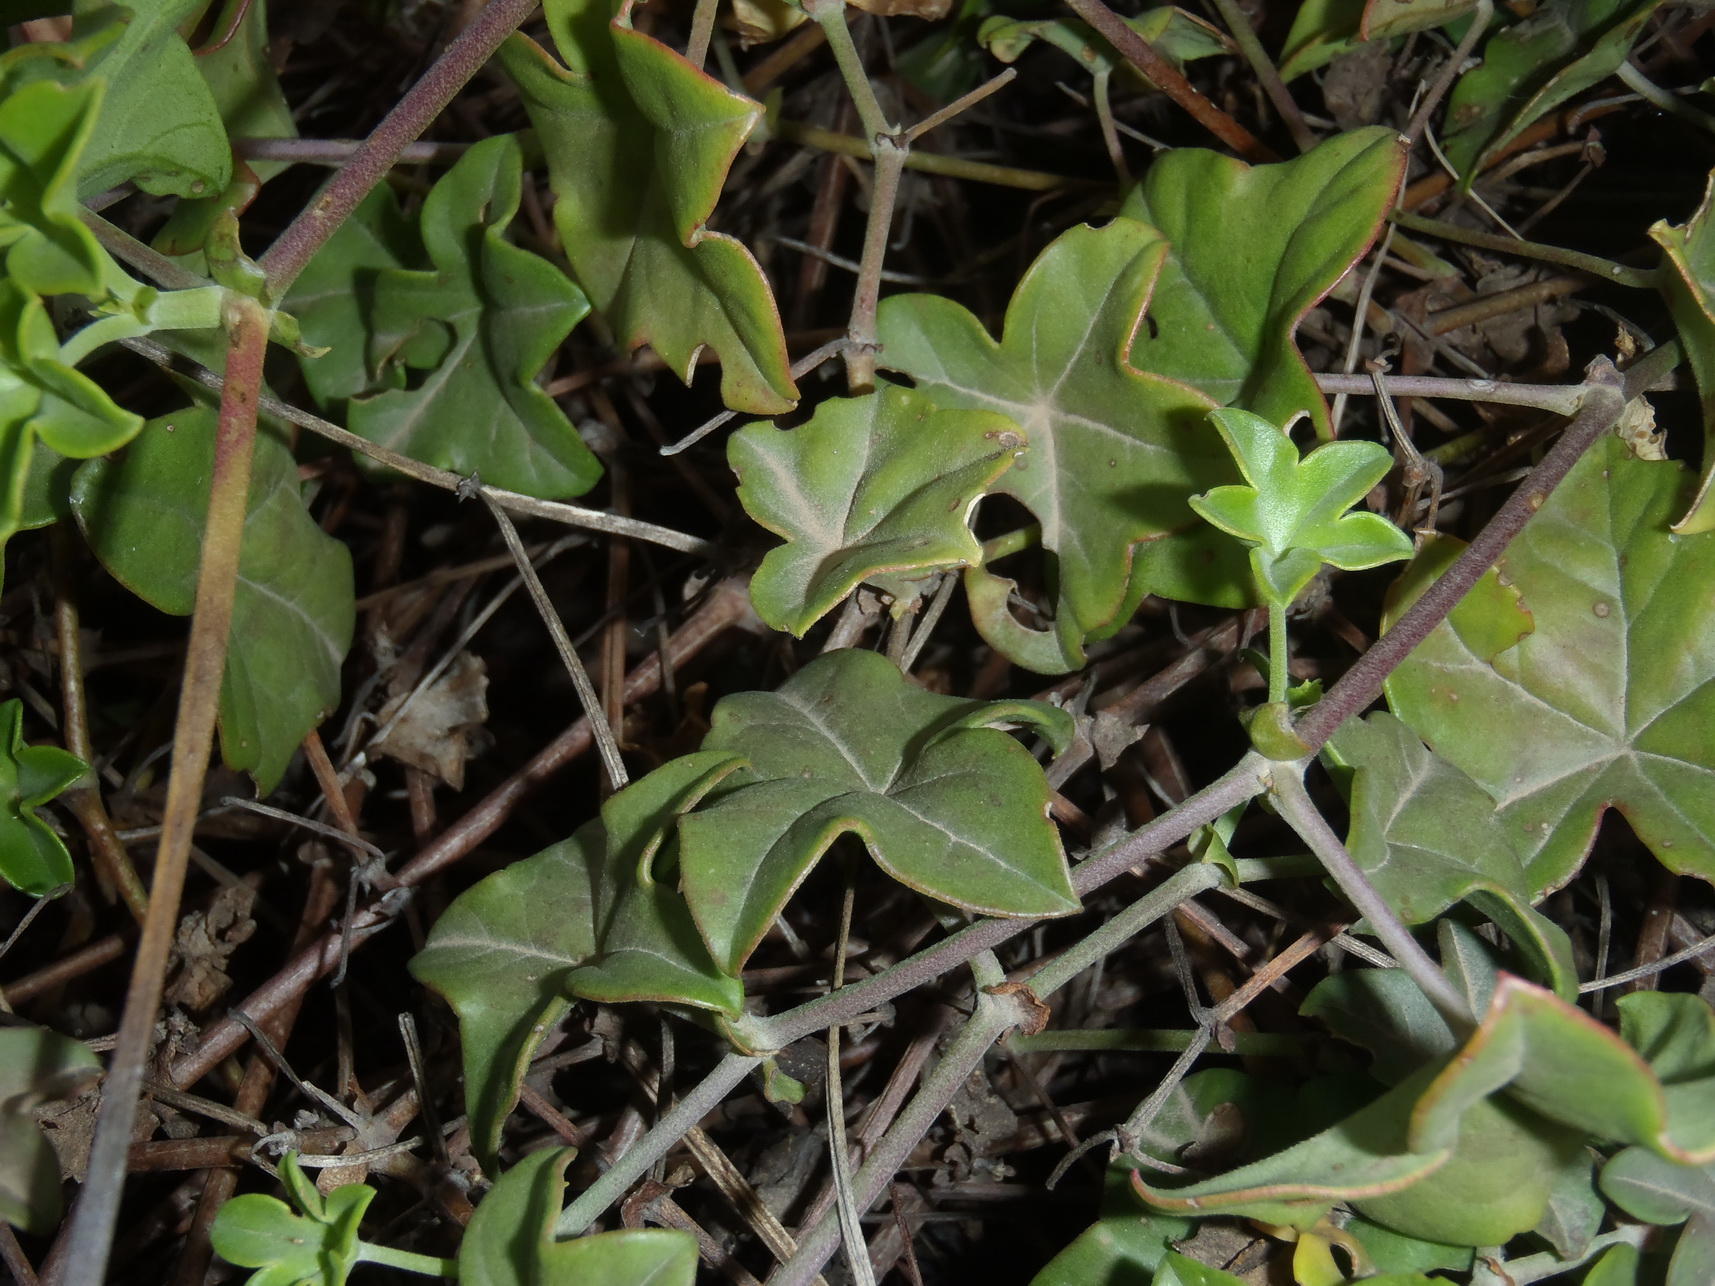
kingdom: Plantae
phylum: Tracheophyta
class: Magnoliopsida
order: Geraniales
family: Geraniaceae
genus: Pelargonium
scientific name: Pelargonium peltatum
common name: Ivyleaf geranium
